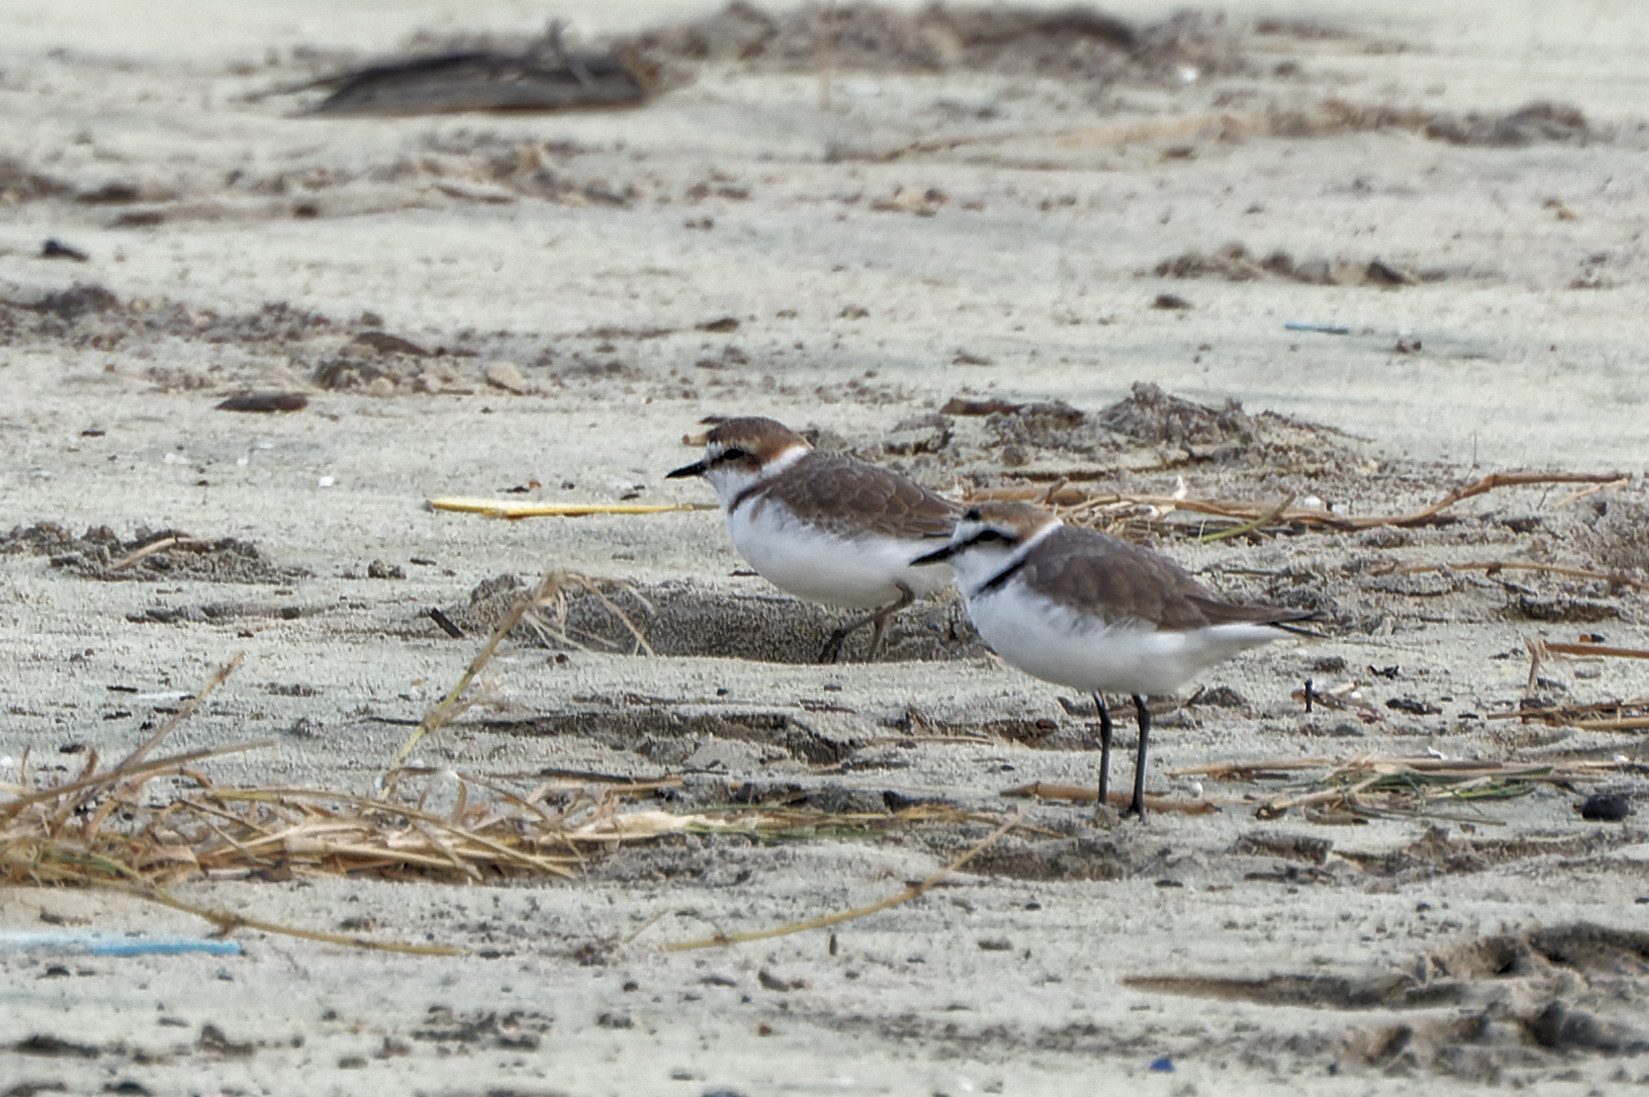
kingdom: Animalia
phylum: Chordata
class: Aves
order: Charadriiformes
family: Charadriidae
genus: Charadrius
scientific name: Charadrius alexandrinus
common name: Kentish plover
